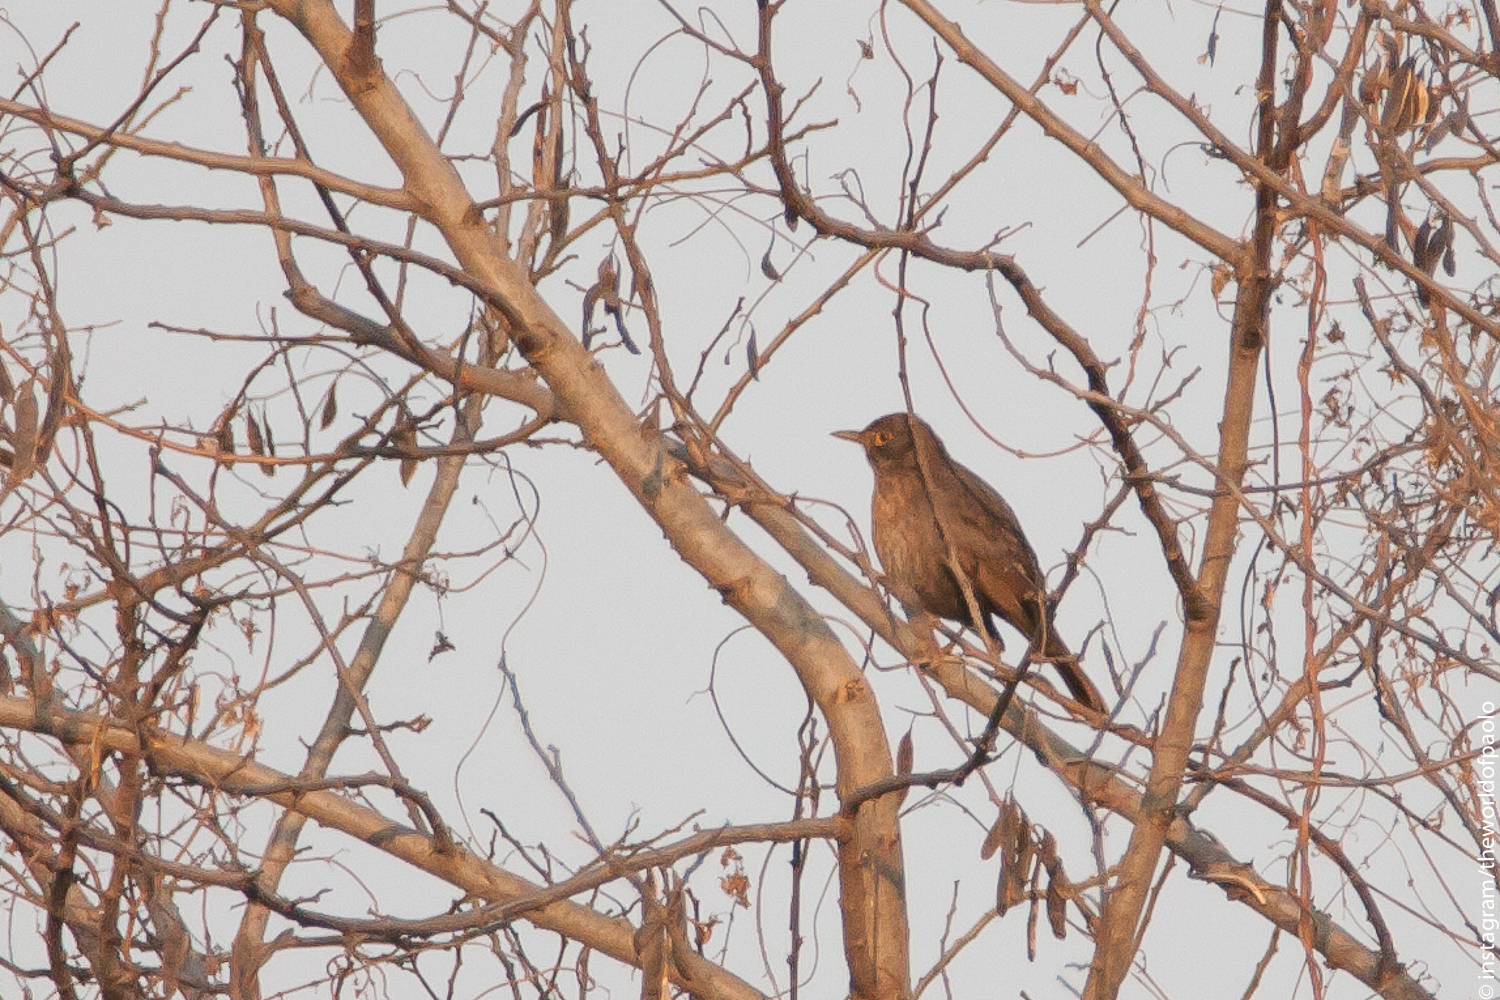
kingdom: Animalia
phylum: Chordata
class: Aves
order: Passeriformes
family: Turdidae
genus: Turdus
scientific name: Turdus merula
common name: Common blackbird
